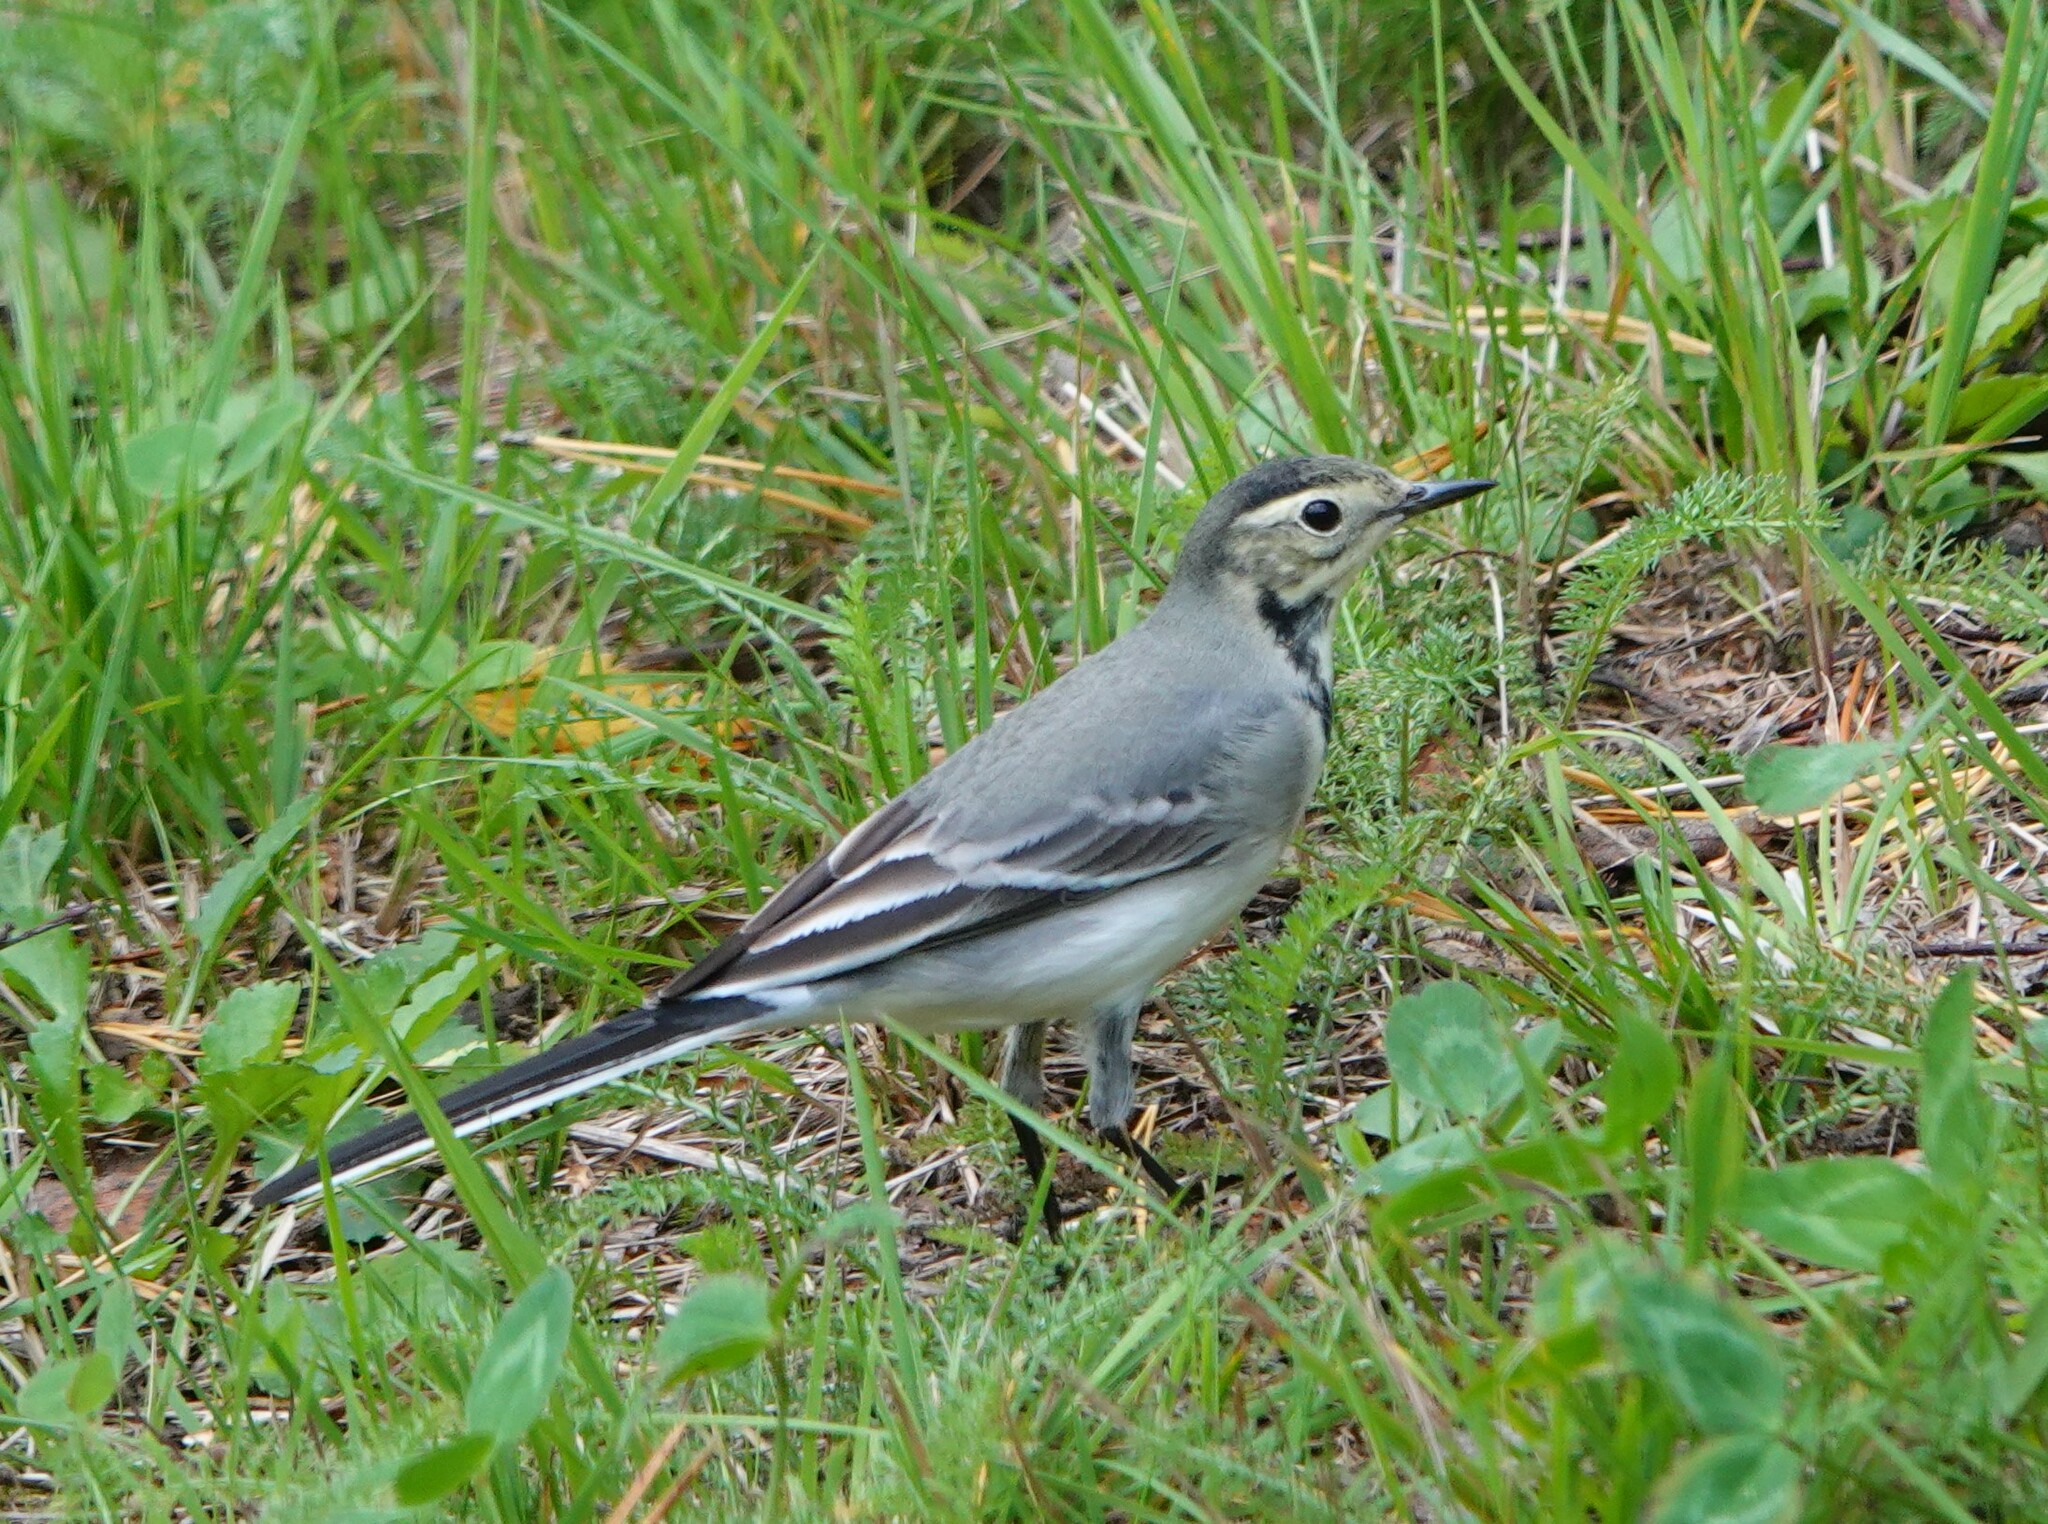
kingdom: Animalia
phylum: Chordata
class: Aves
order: Passeriformes
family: Motacillidae
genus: Motacilla
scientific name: Motacilla alba
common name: White wagtail
